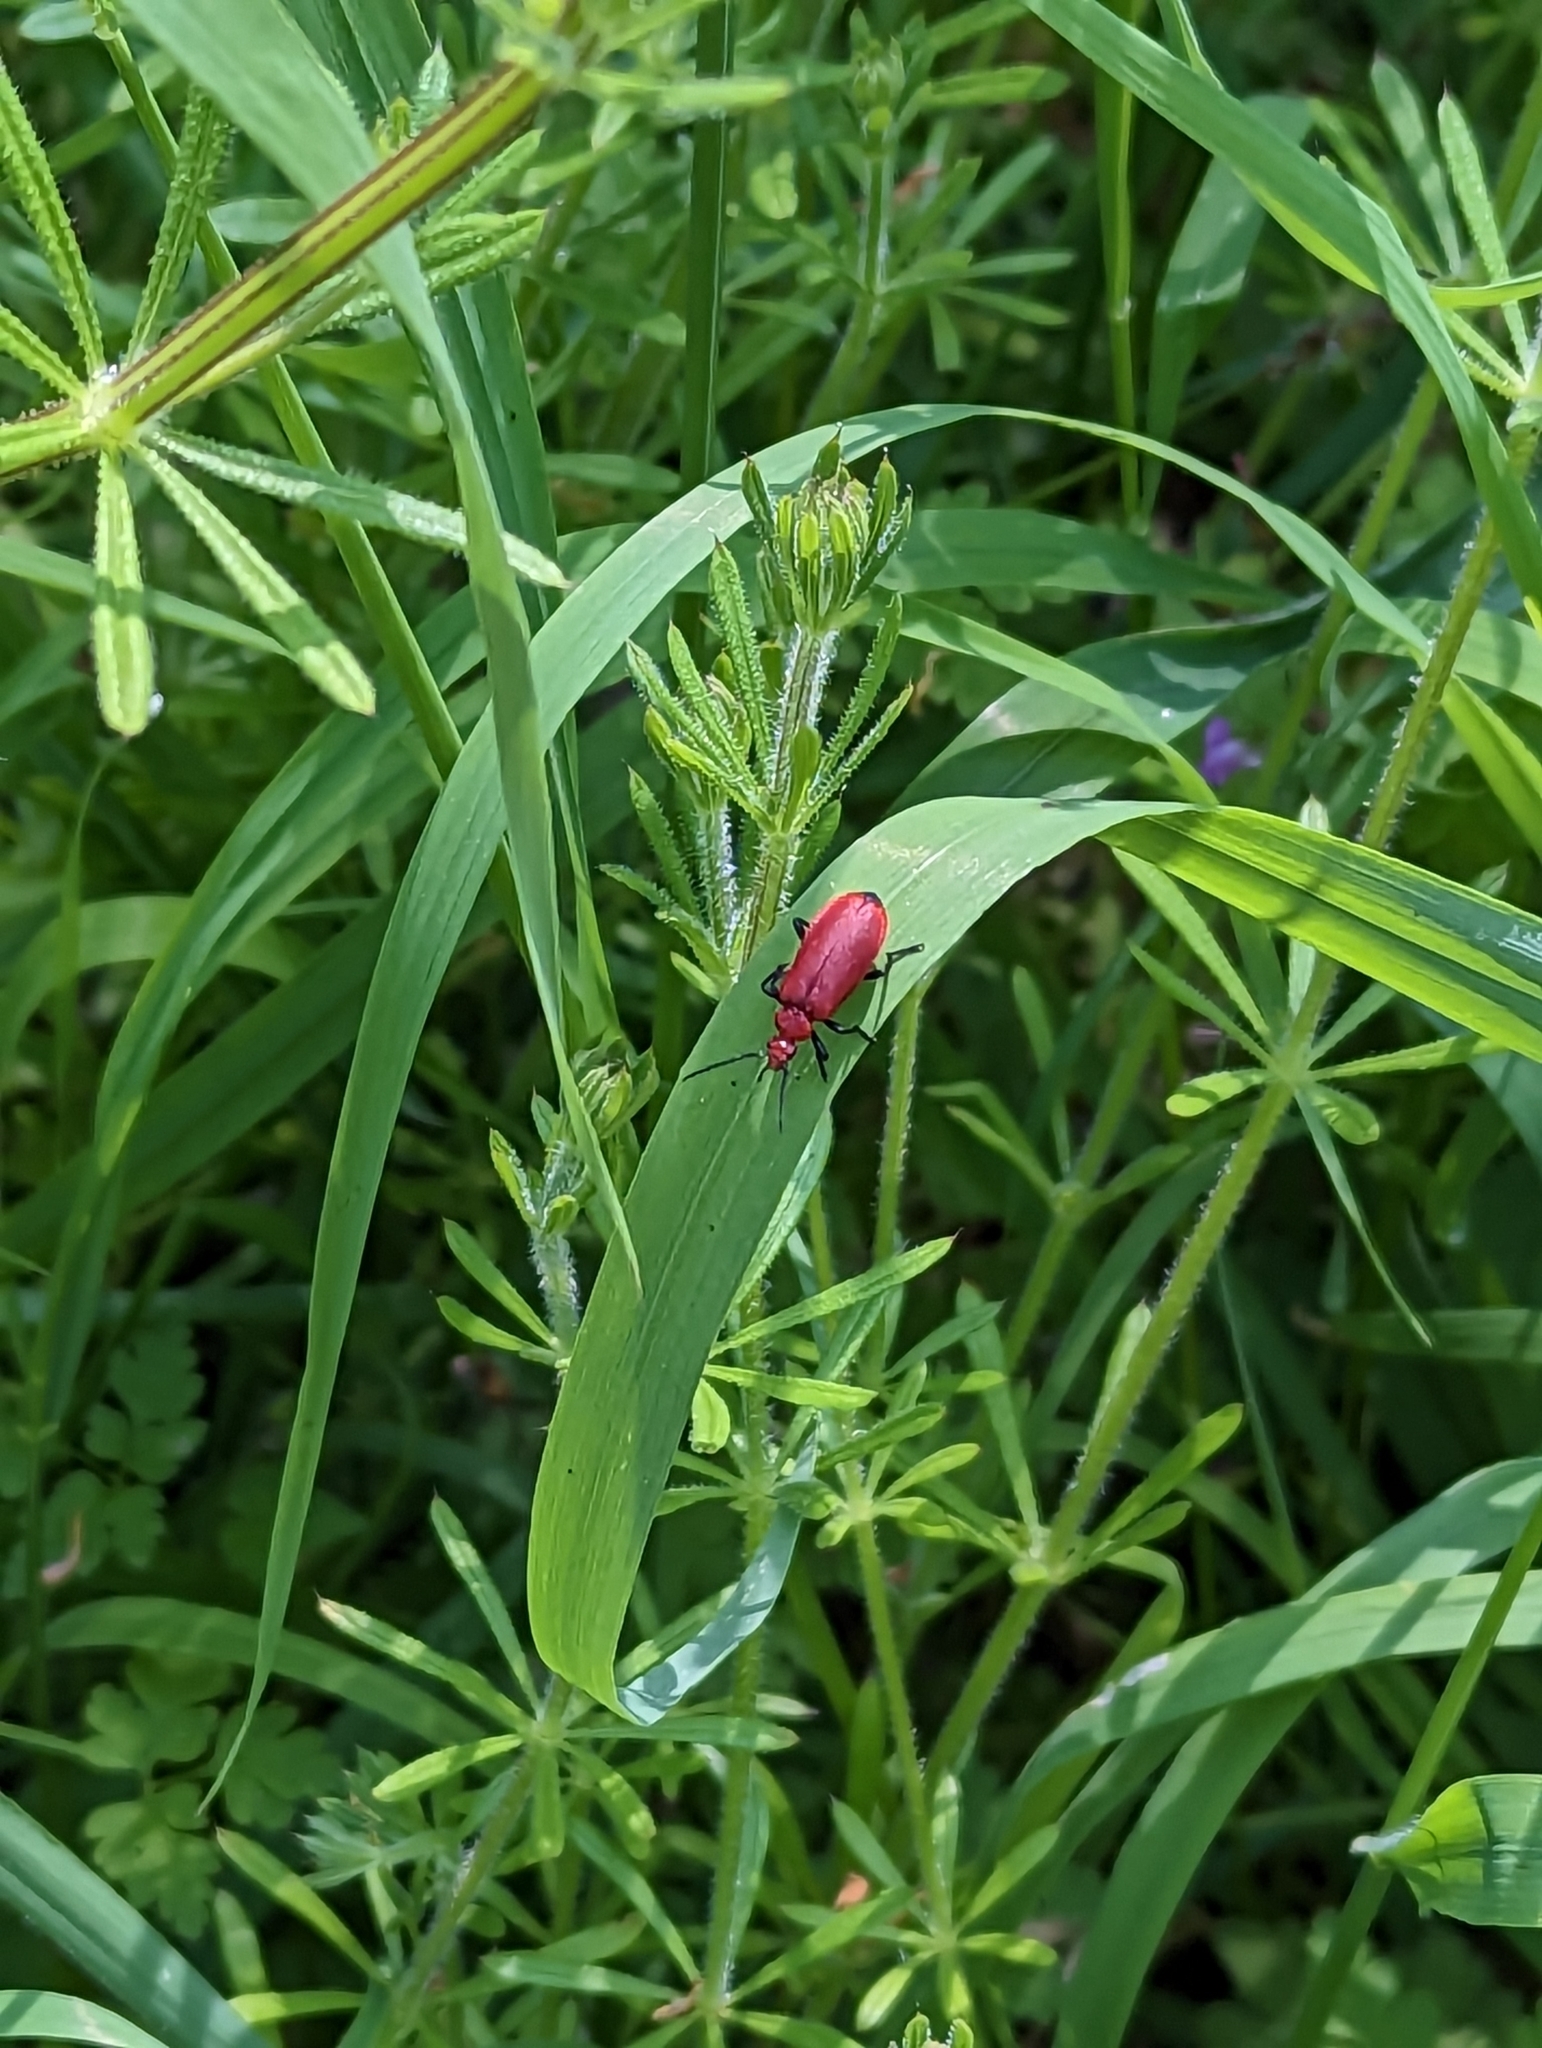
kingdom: Animalia
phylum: Arthropoda
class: Insecta
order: Coleoptera
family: Pyrochroidae
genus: Pyrochroa
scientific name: Pyrochroa serraticornis
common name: Red-headed cardinal beetle
